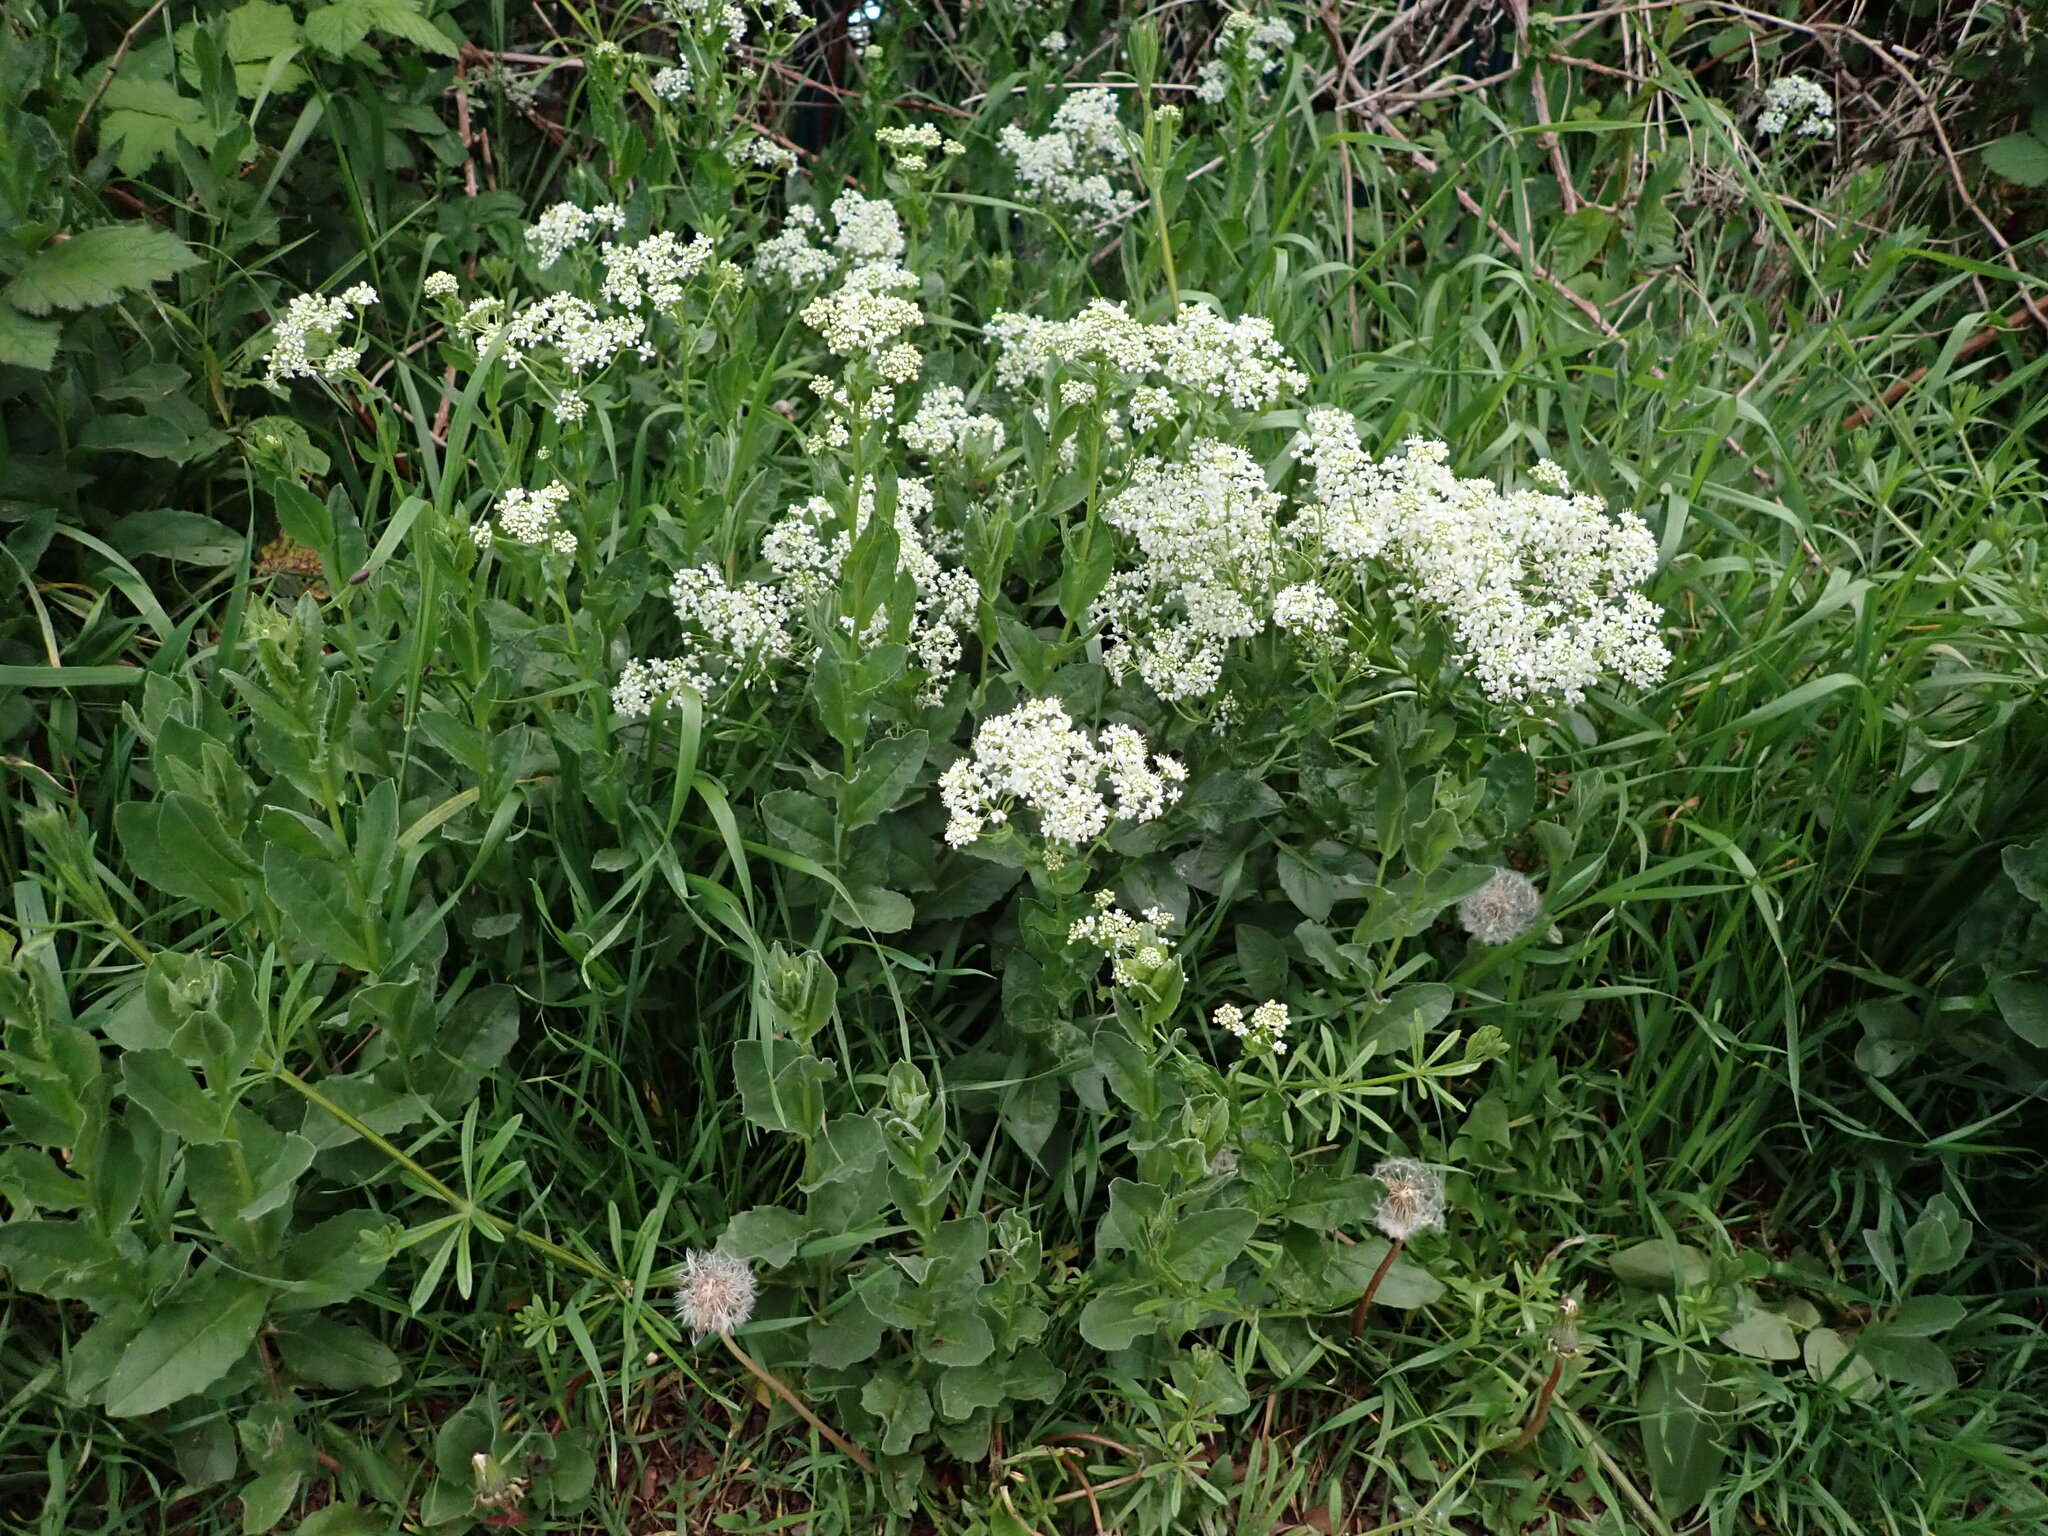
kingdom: Plantae
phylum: Tracheophyta
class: Magnoliopsida
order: Brassicales
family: Brassicaceae
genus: Lepidium
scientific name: Lepidium draba
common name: Hoary cress
